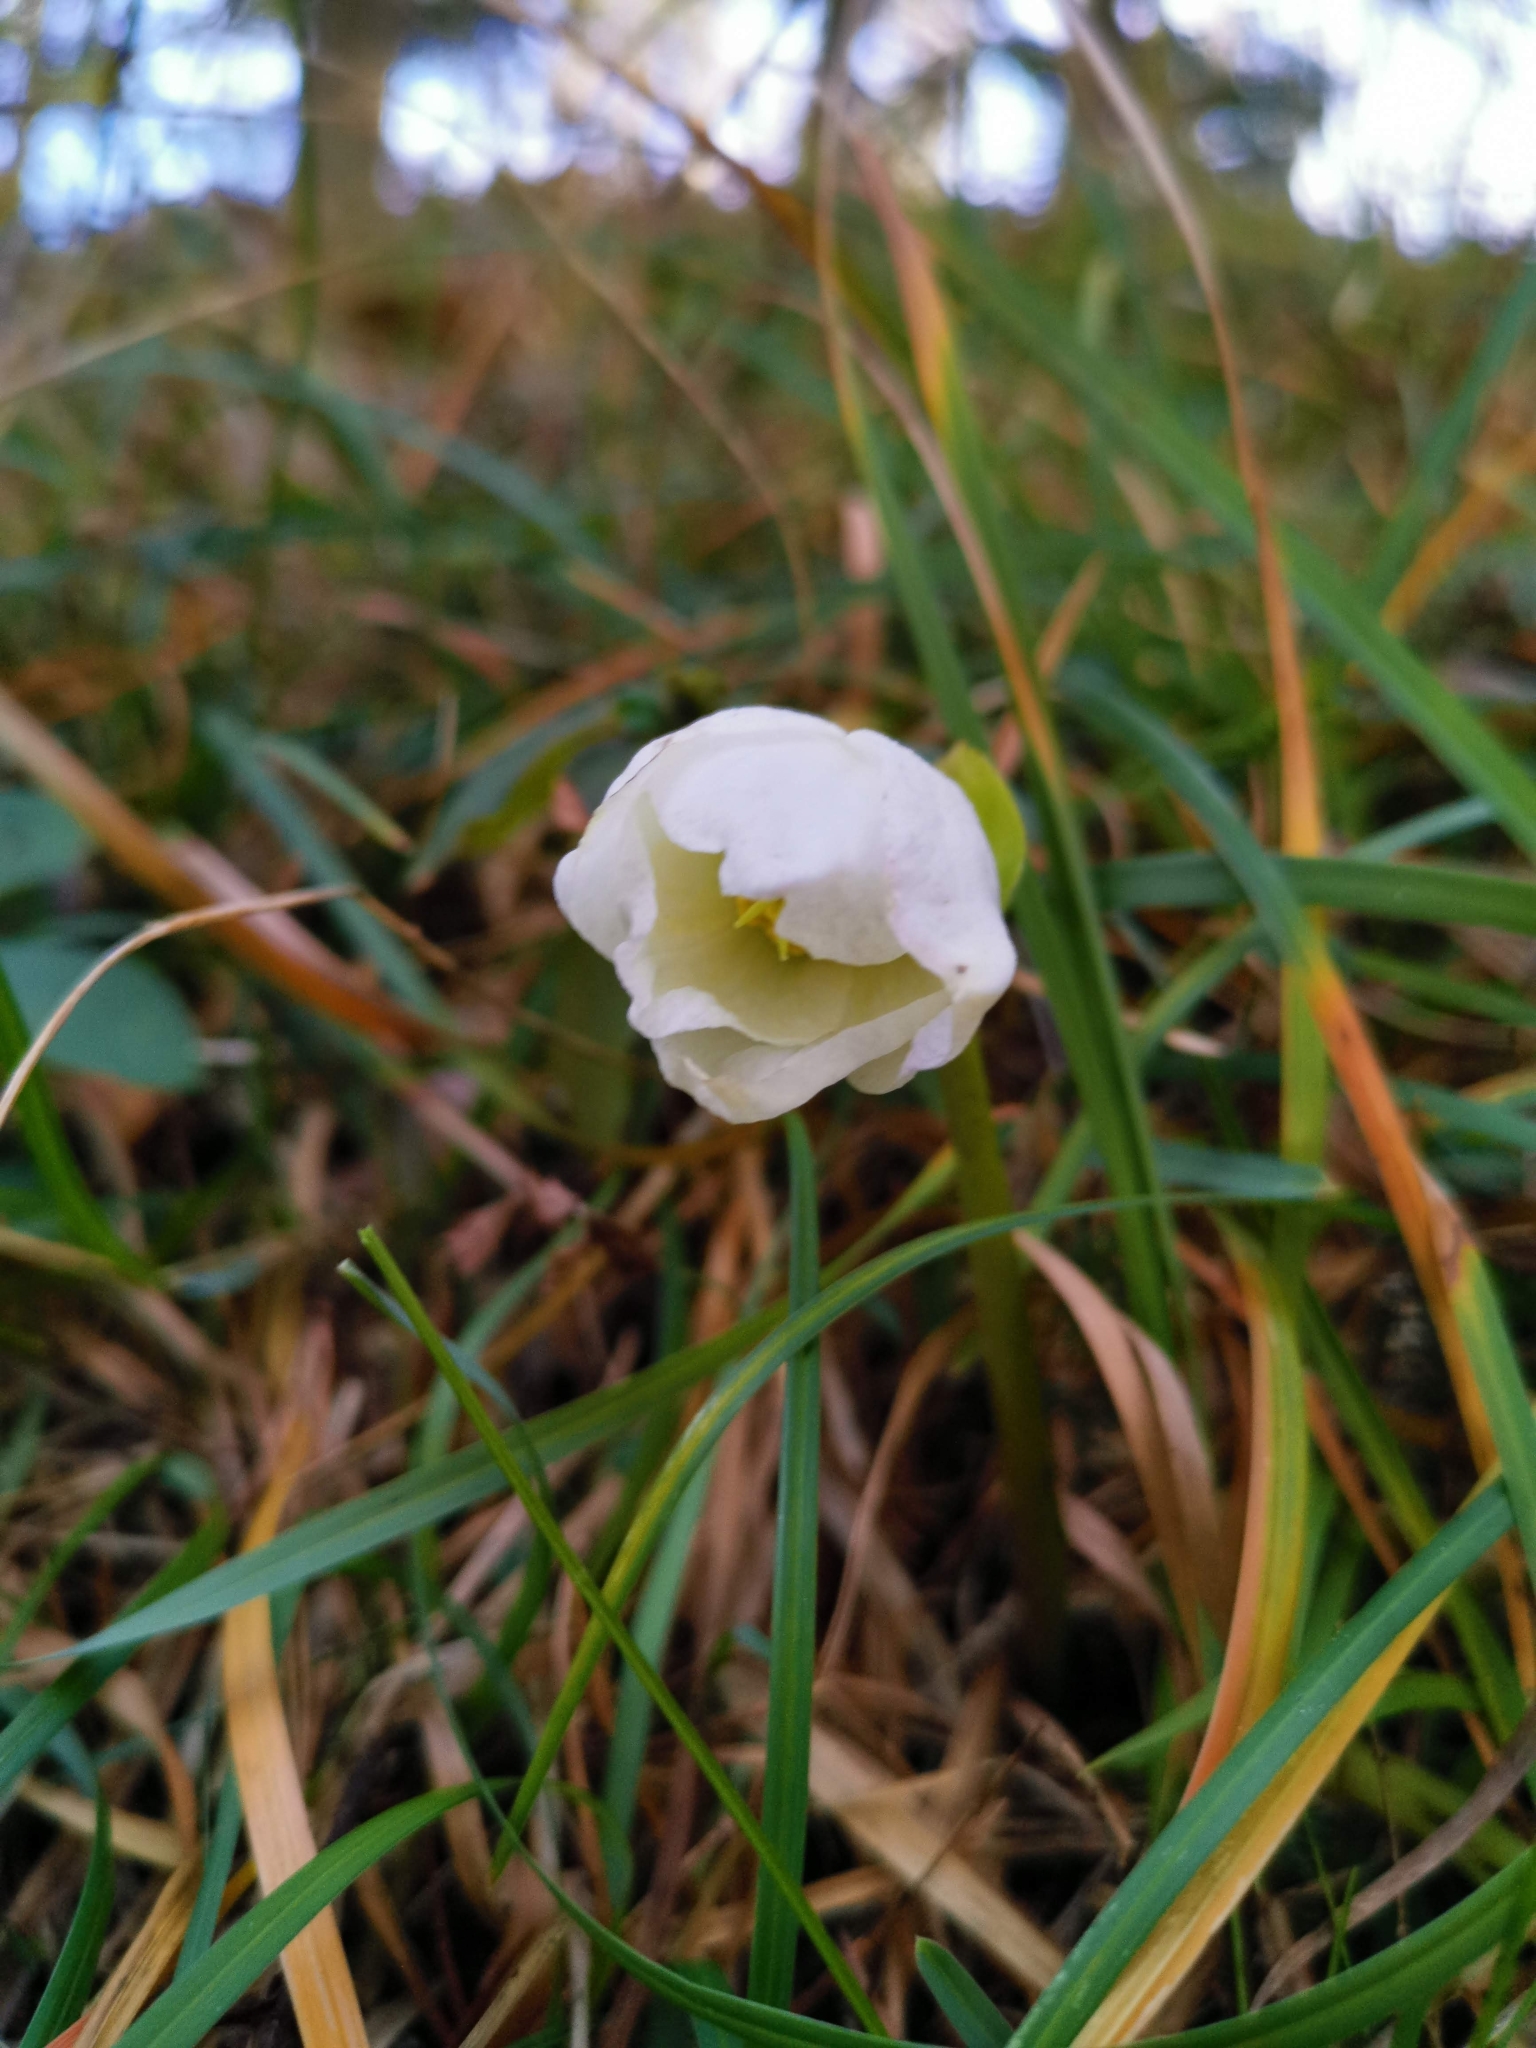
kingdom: Plantae
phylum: Tracheophyta
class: Magnoliopsida
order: Ranunculales
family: Ranunculaceae
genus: Helleborus
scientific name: Helleborus niger
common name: Black hellebore
